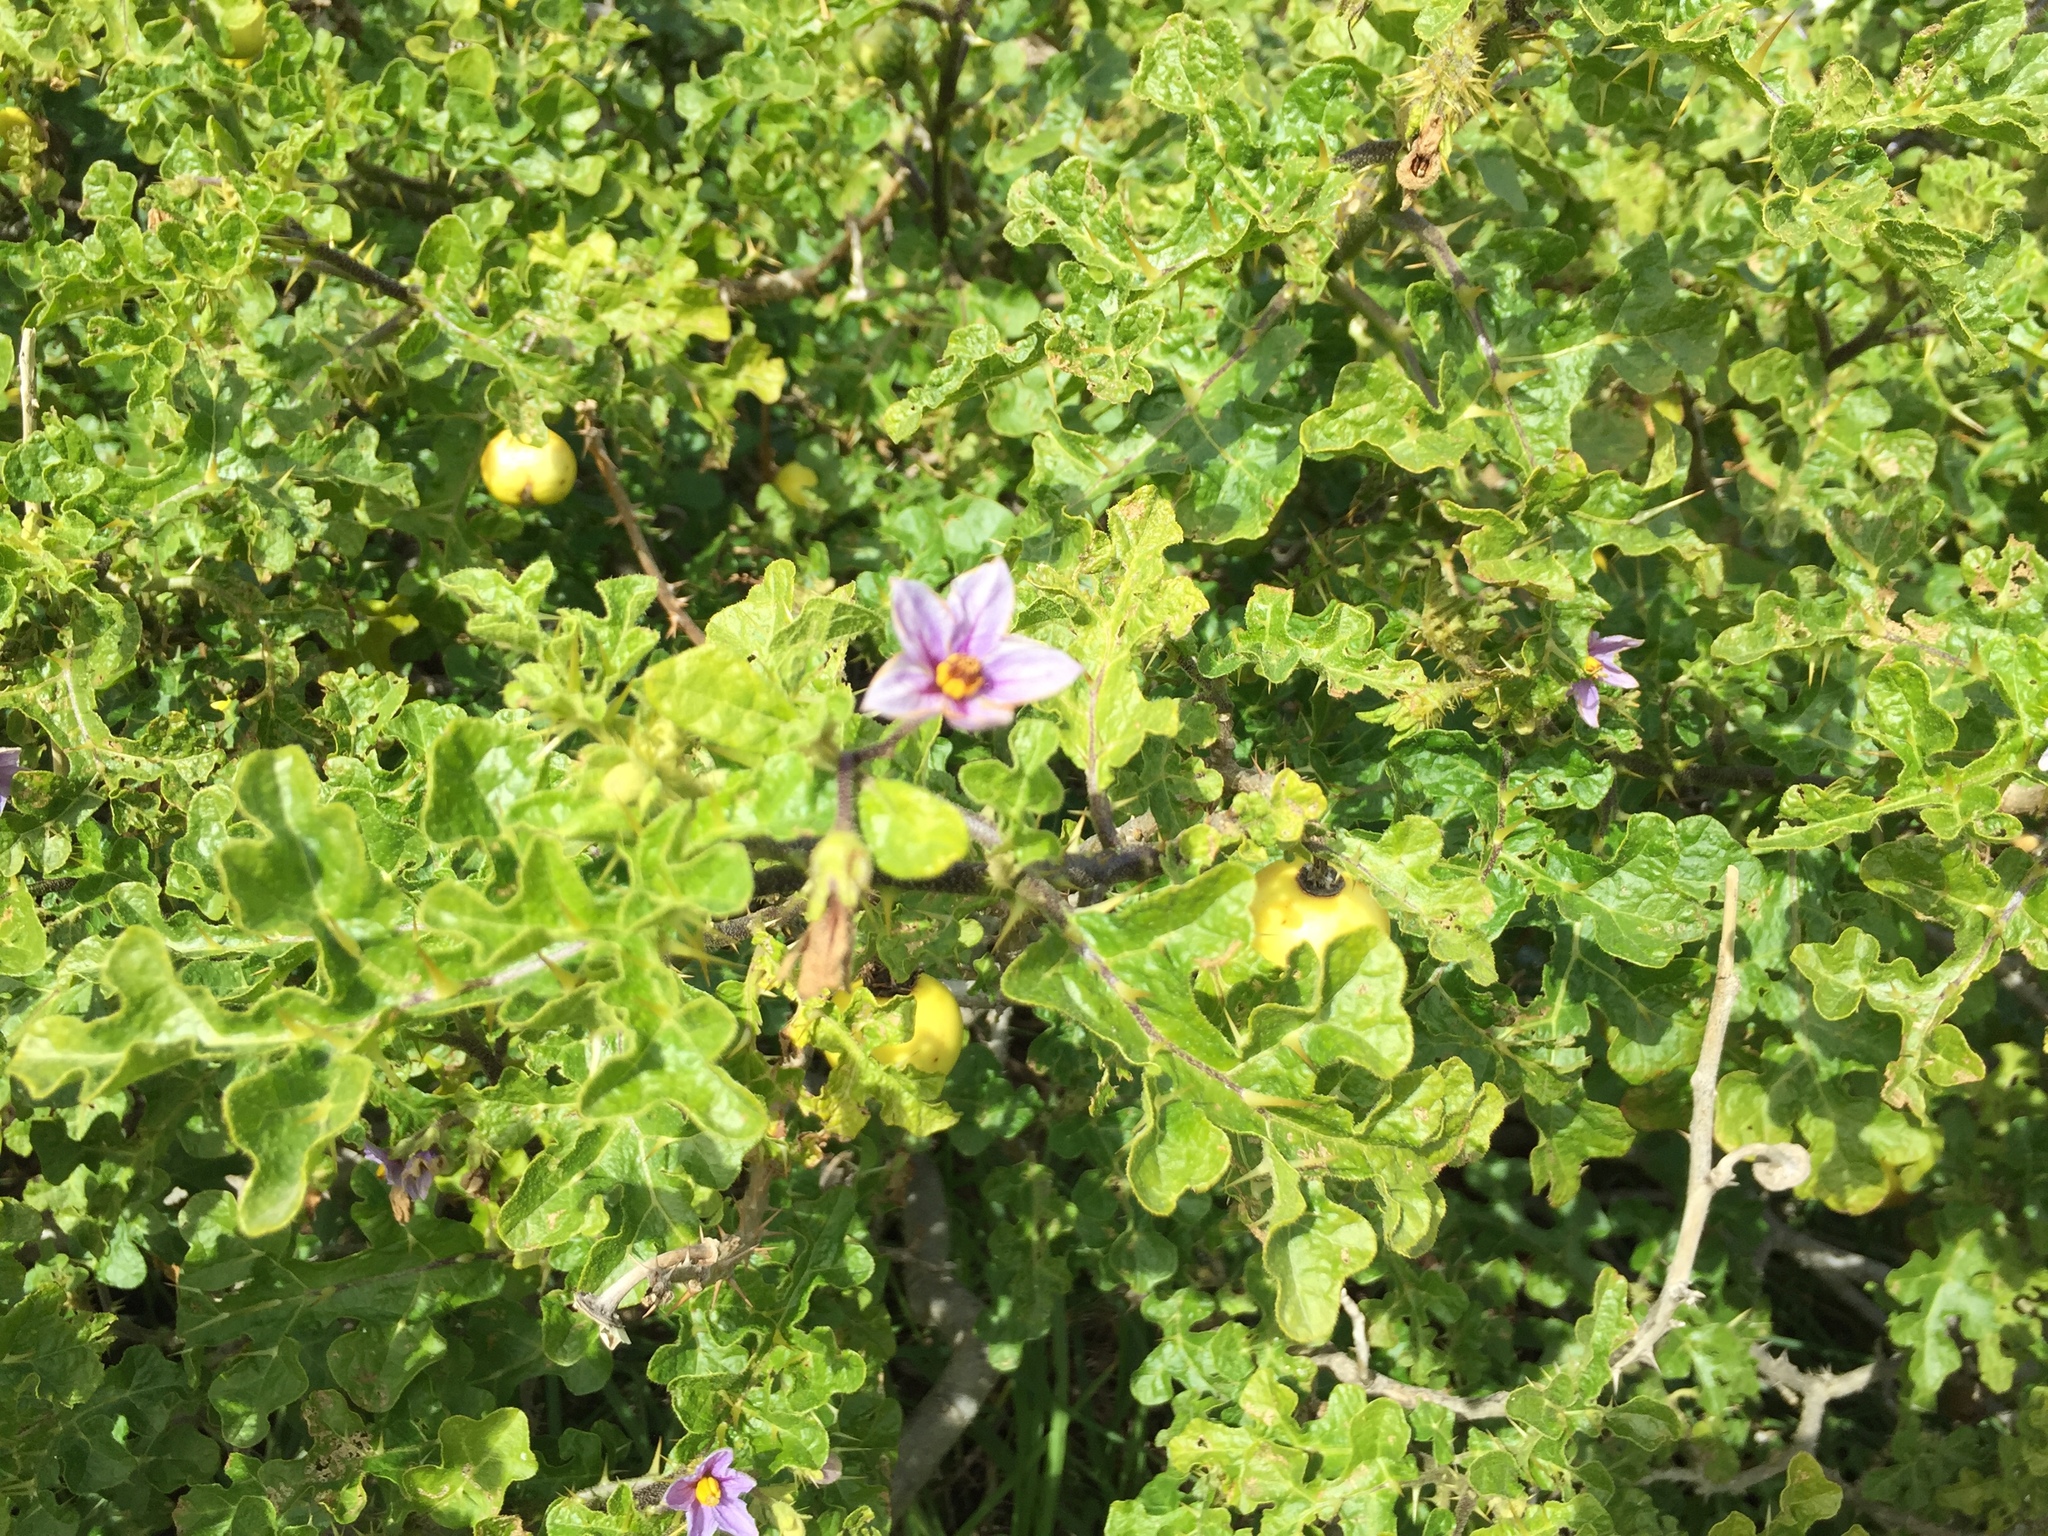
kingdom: Plantae
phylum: Tracheophyta
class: Magnoliopsida
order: Solanales
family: Solanaceae
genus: Solanum
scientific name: Solanum linnaeanum
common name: Nightshade
